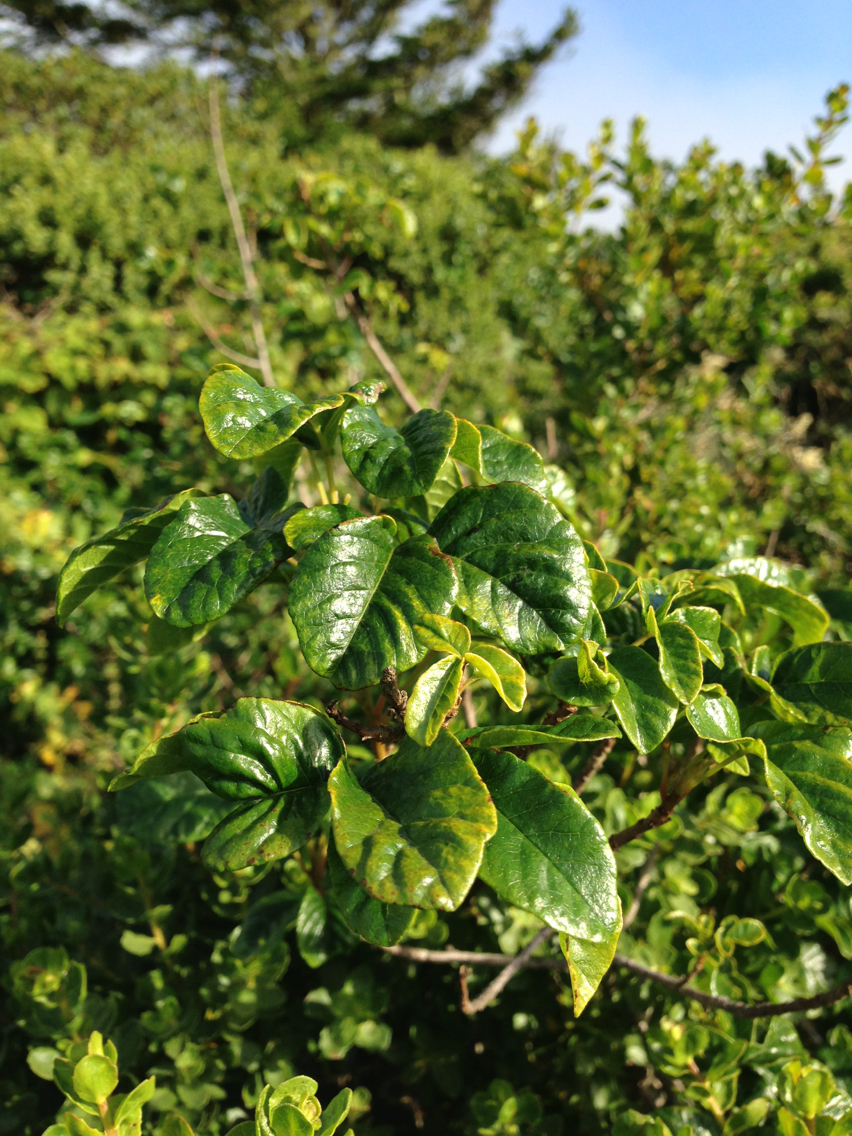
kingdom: Plantae
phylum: Tracheophyta
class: Magnoliopsida
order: Sapindales
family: Anacardiaceae
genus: Toxicodendron
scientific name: Toxicodendron diversilobum
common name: Pacific poison-oak
